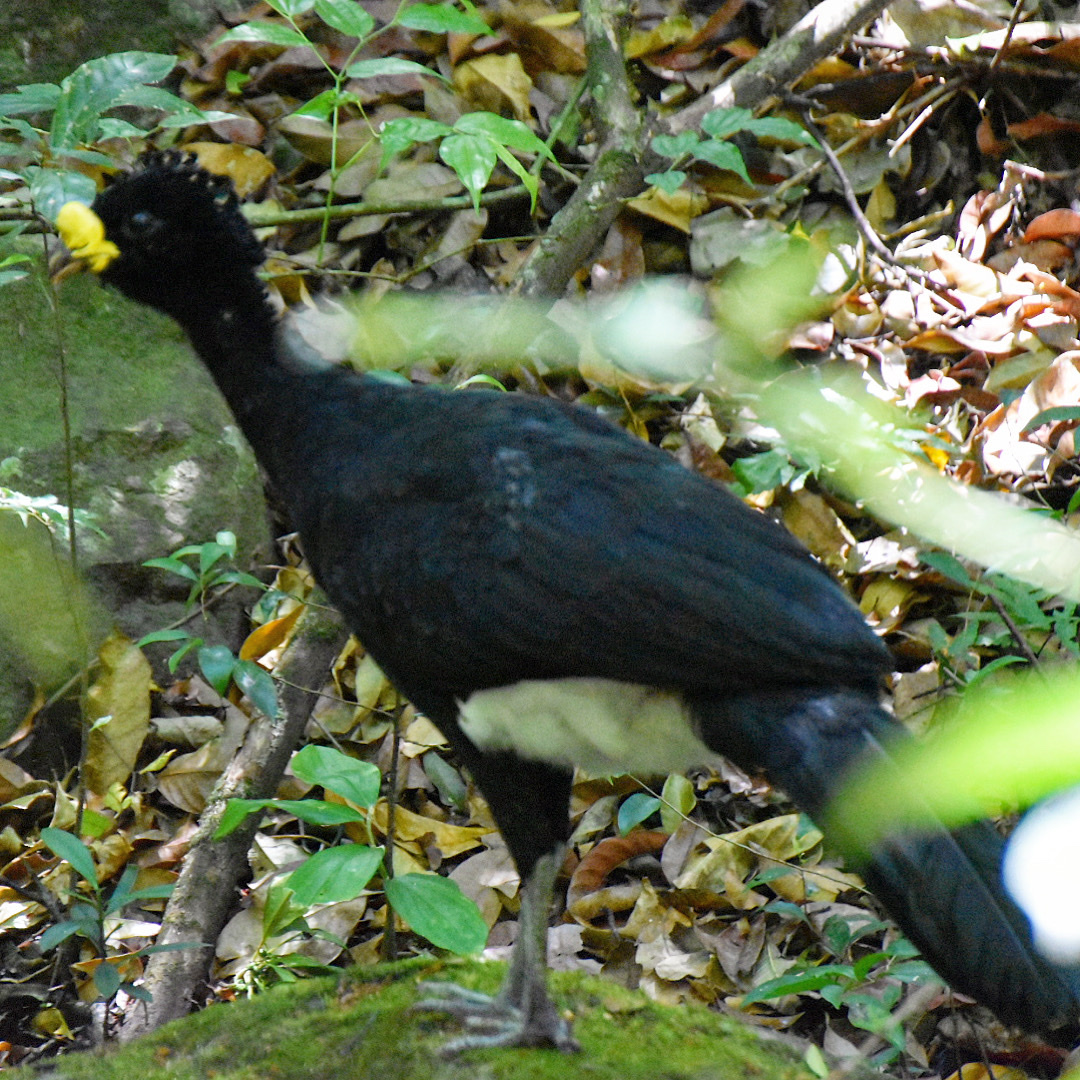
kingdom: Animalia
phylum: Chordata
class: Aves
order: Galliformes
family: Cracidae
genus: Crax
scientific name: Crax rubra
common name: Great curassow
